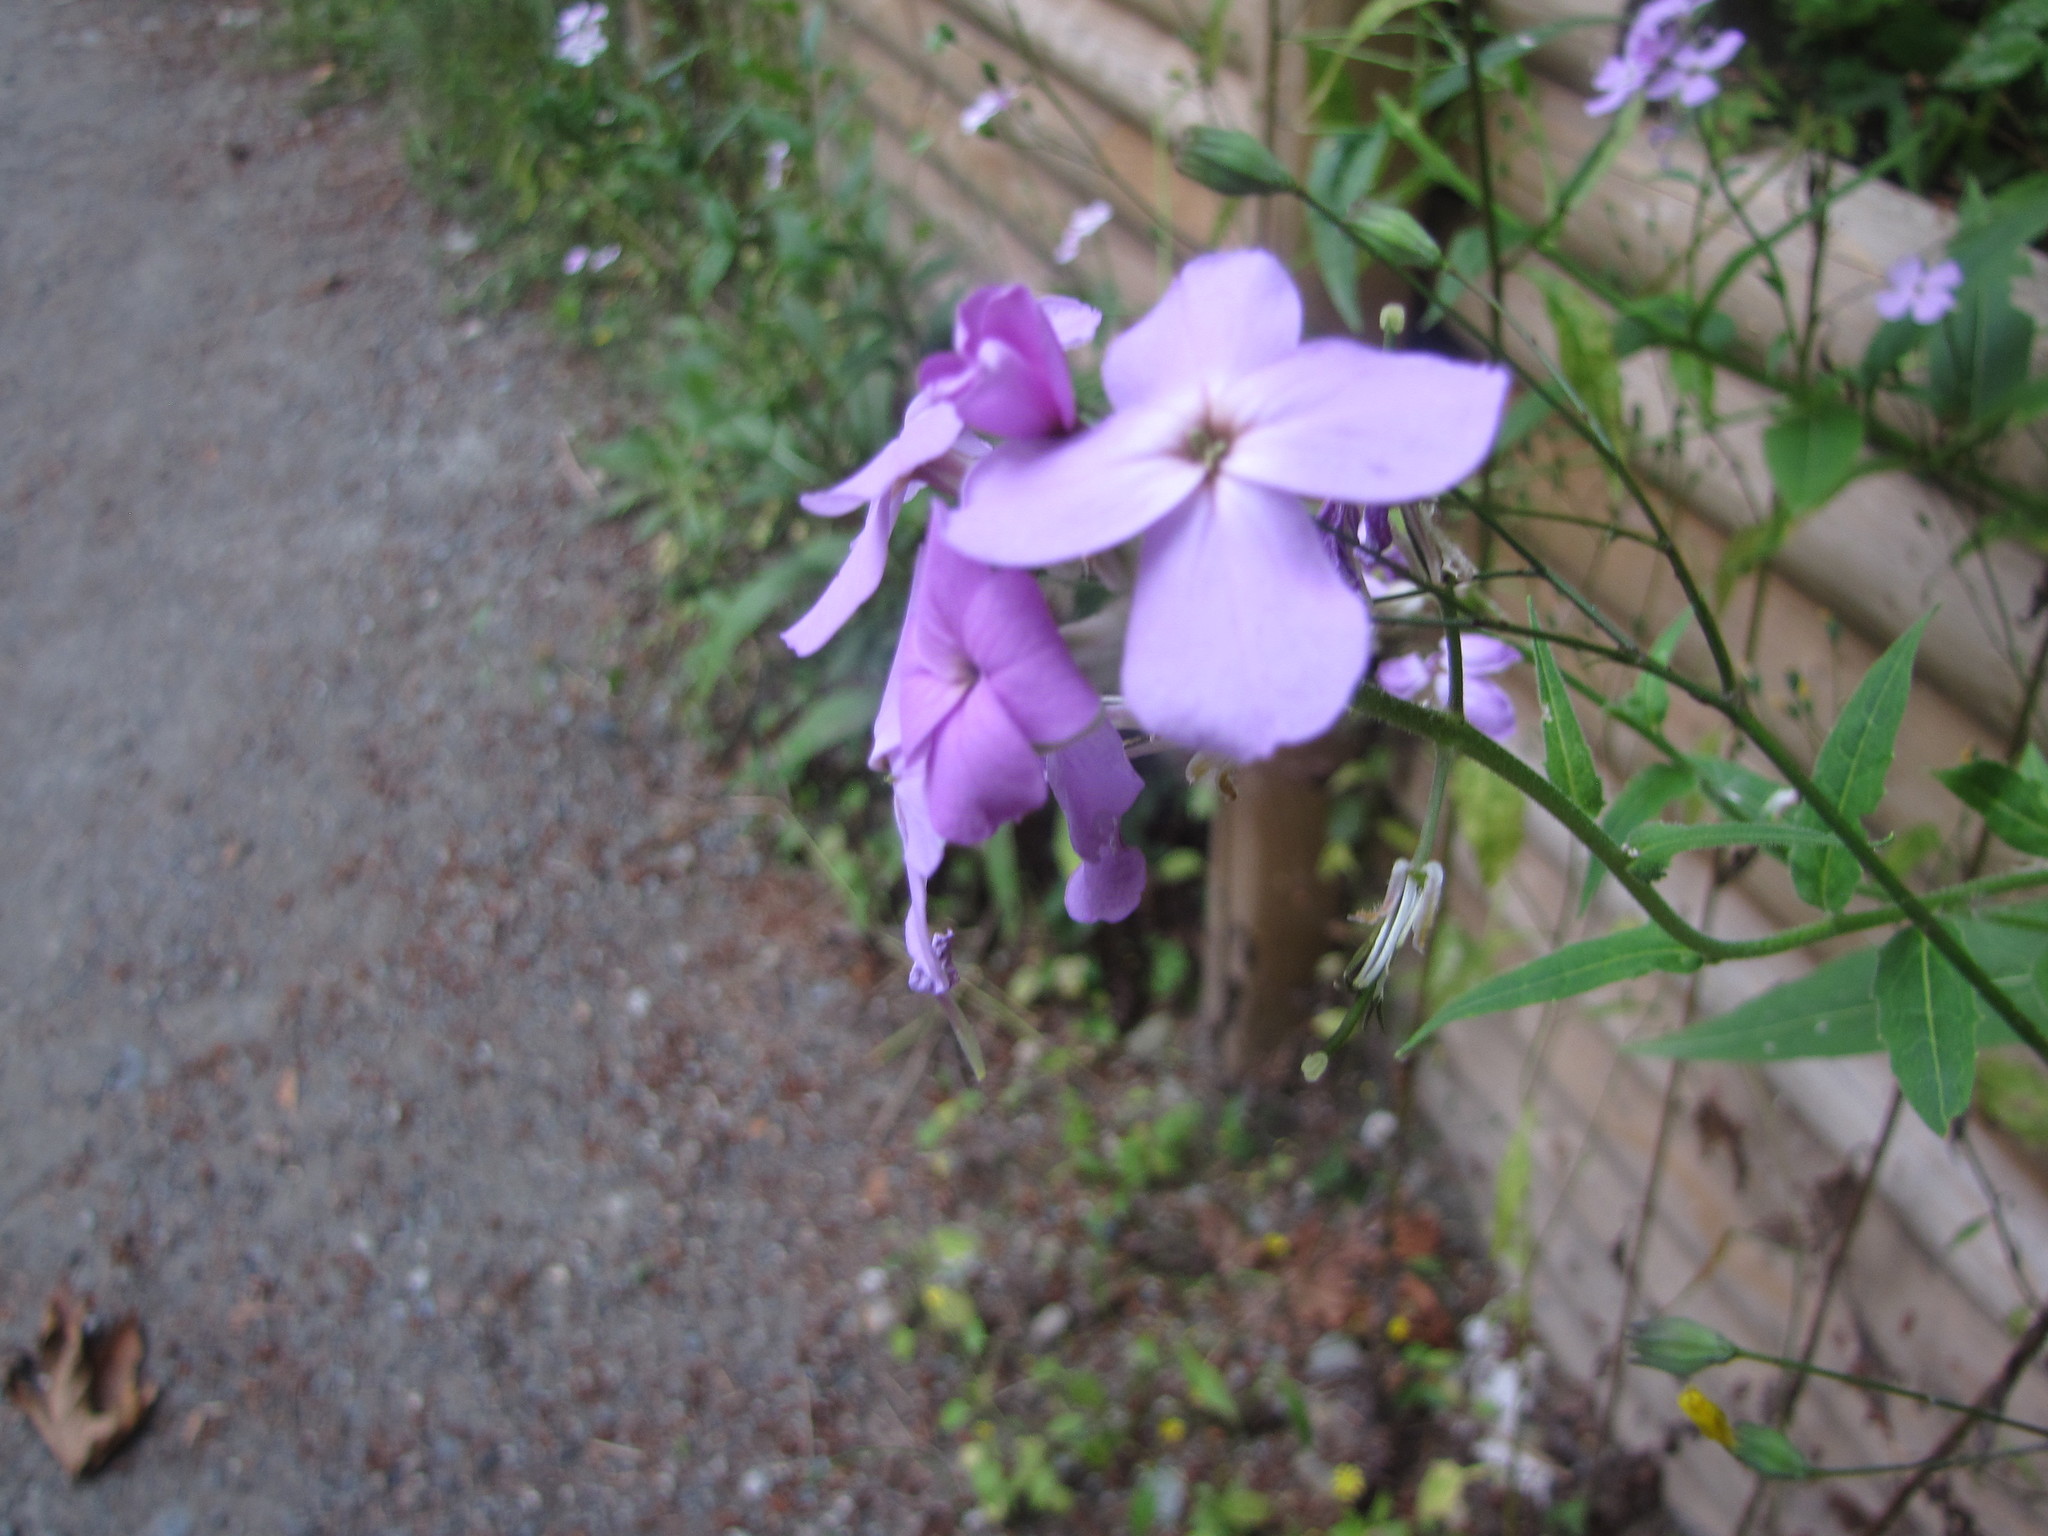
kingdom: Plantae
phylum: Tracheophyta
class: Magnoliopsida
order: Brassicales
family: Brassicaceae
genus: Hesperis
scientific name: Hesperis matronalis
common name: Dame's-violet
